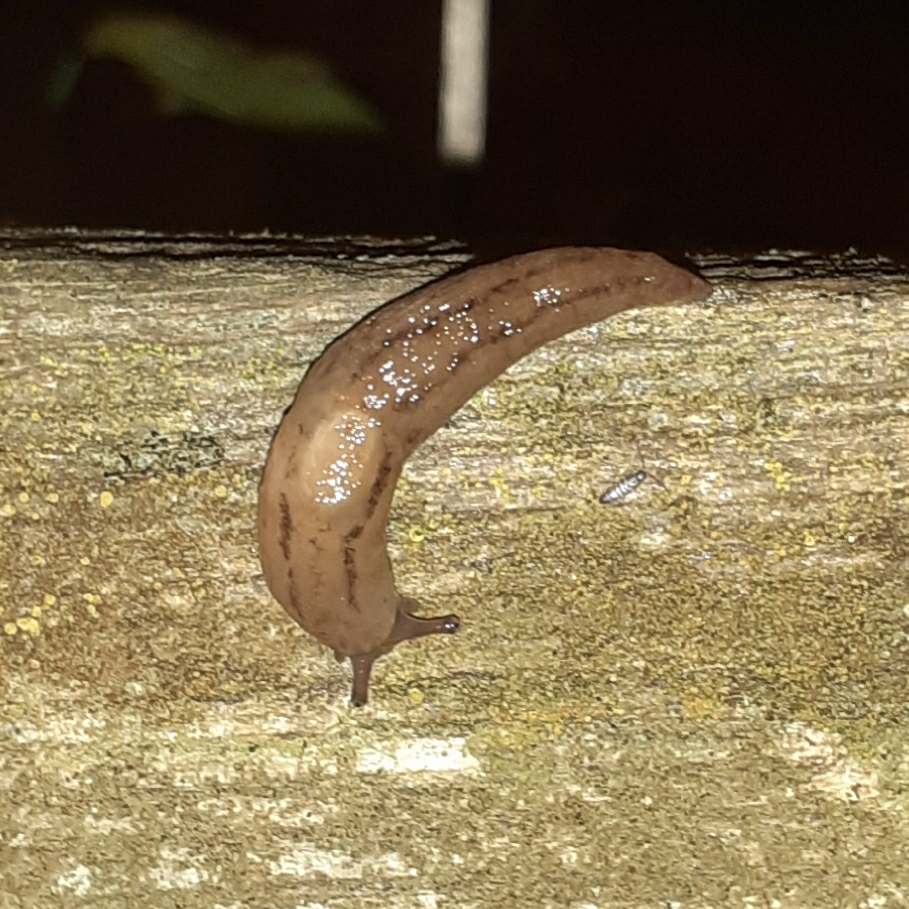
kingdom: Animalia
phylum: Mollusca
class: Gastropoda
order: Stylommatophora
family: Limacidae
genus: Ambigolimax
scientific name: Ambigolimax valentianus
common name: Greenhouse slug
